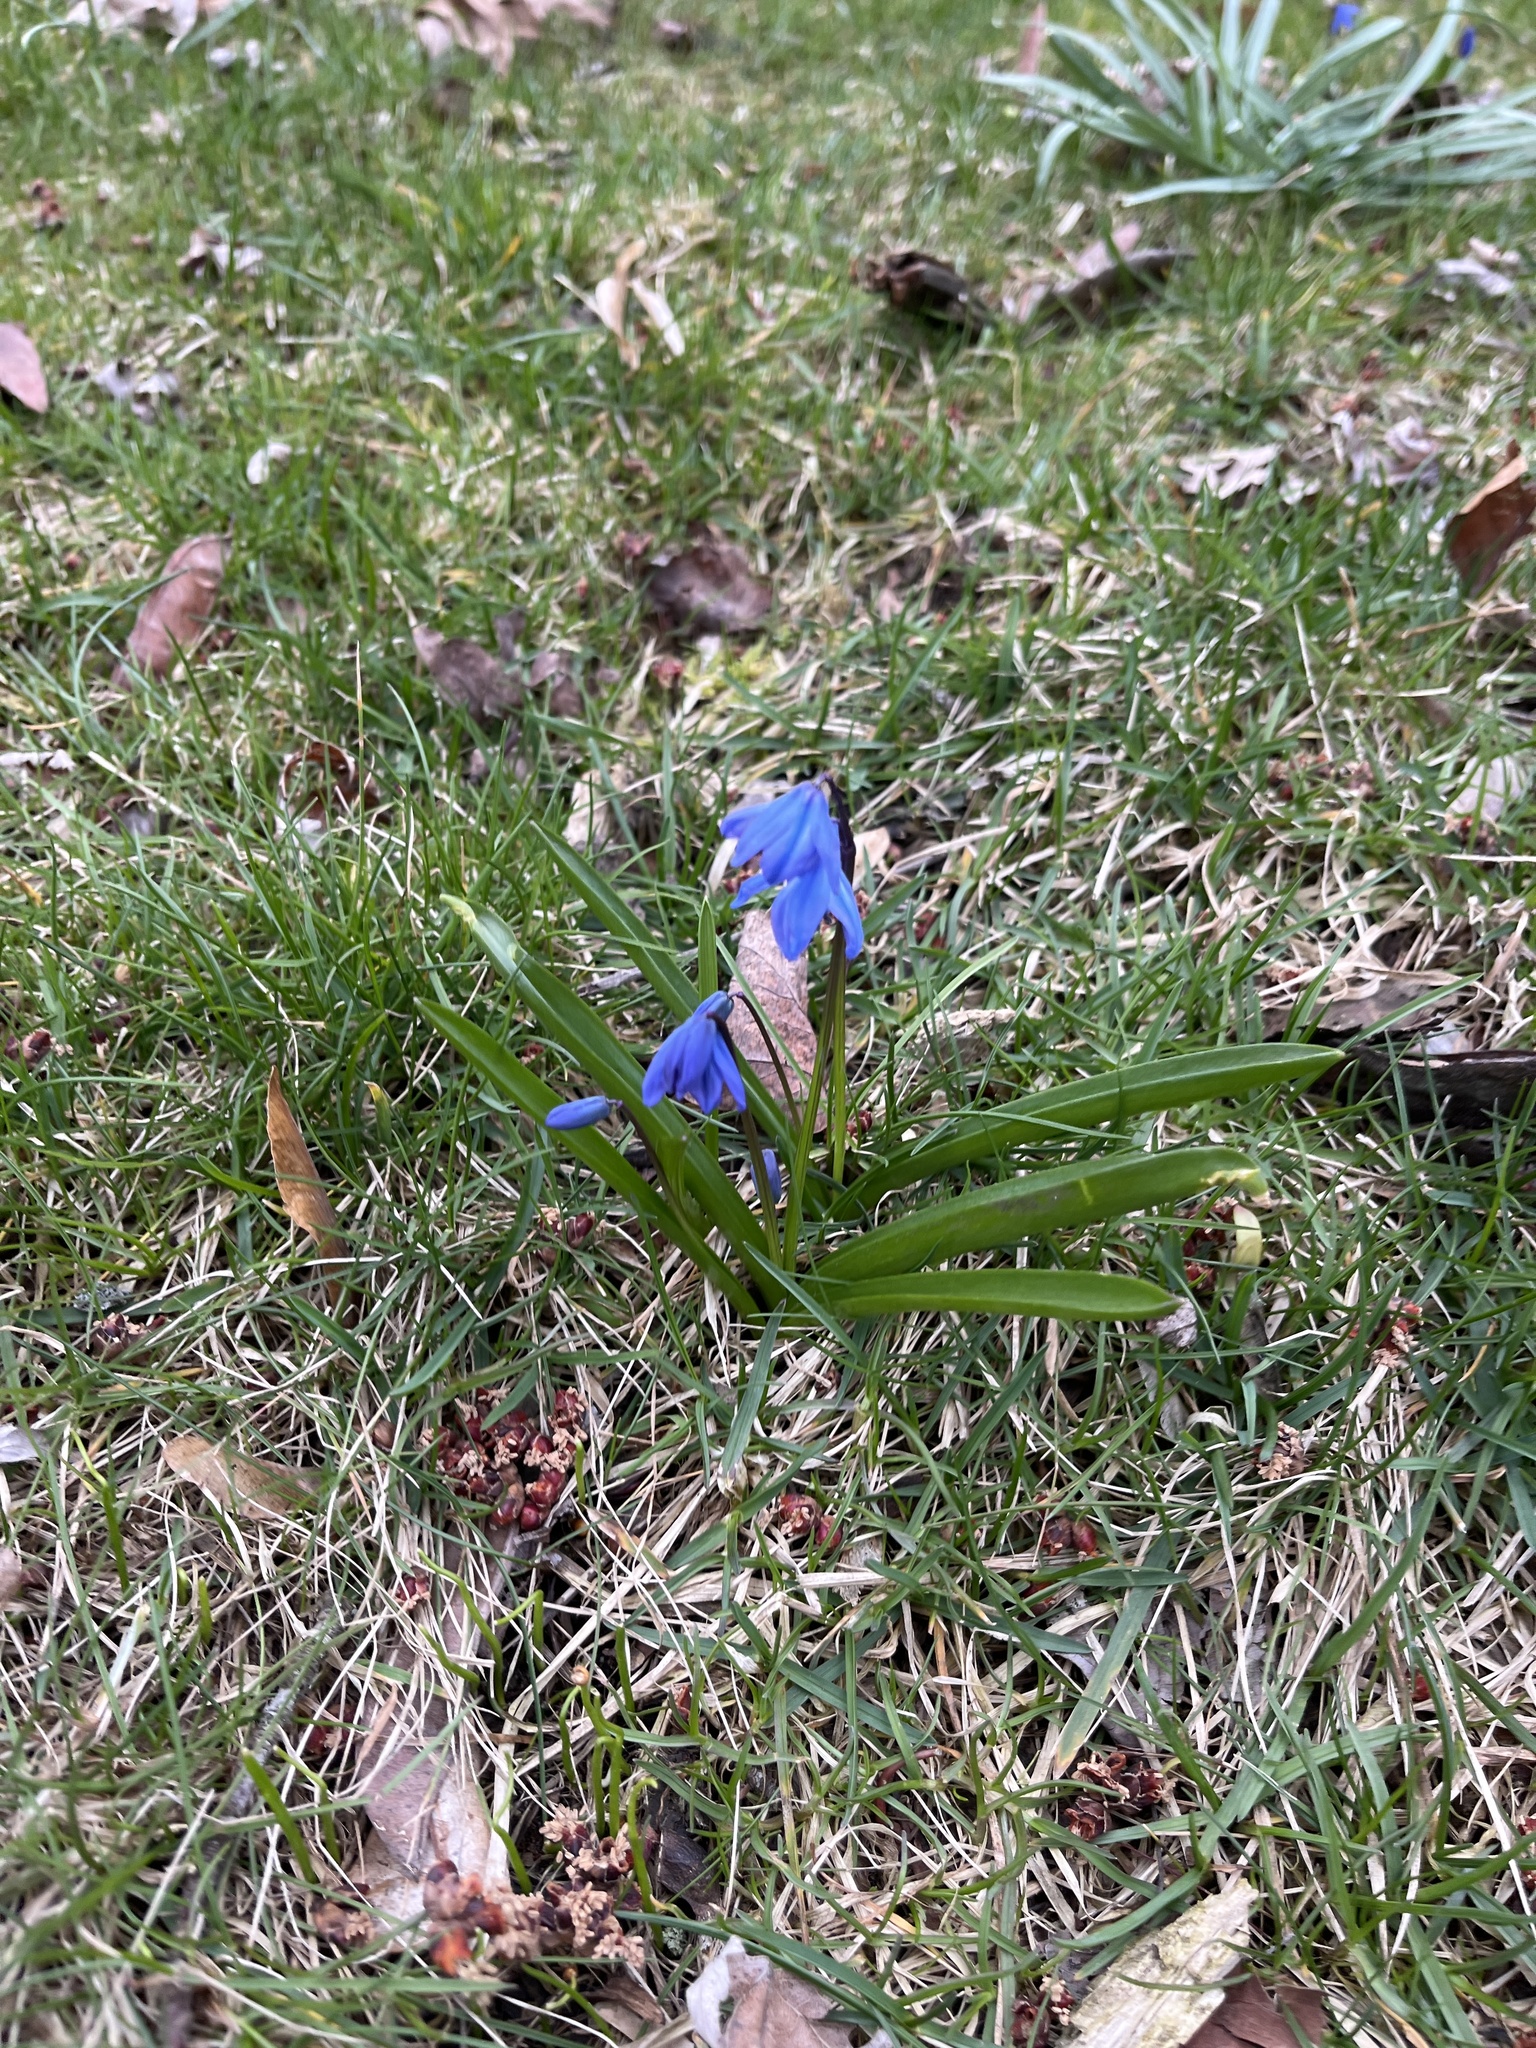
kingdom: Plantae
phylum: Tracheophyta
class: Liliopsida
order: Asparagales
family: Asparagaceae
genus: Scilla
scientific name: Scilla siberica
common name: Siberian squill
